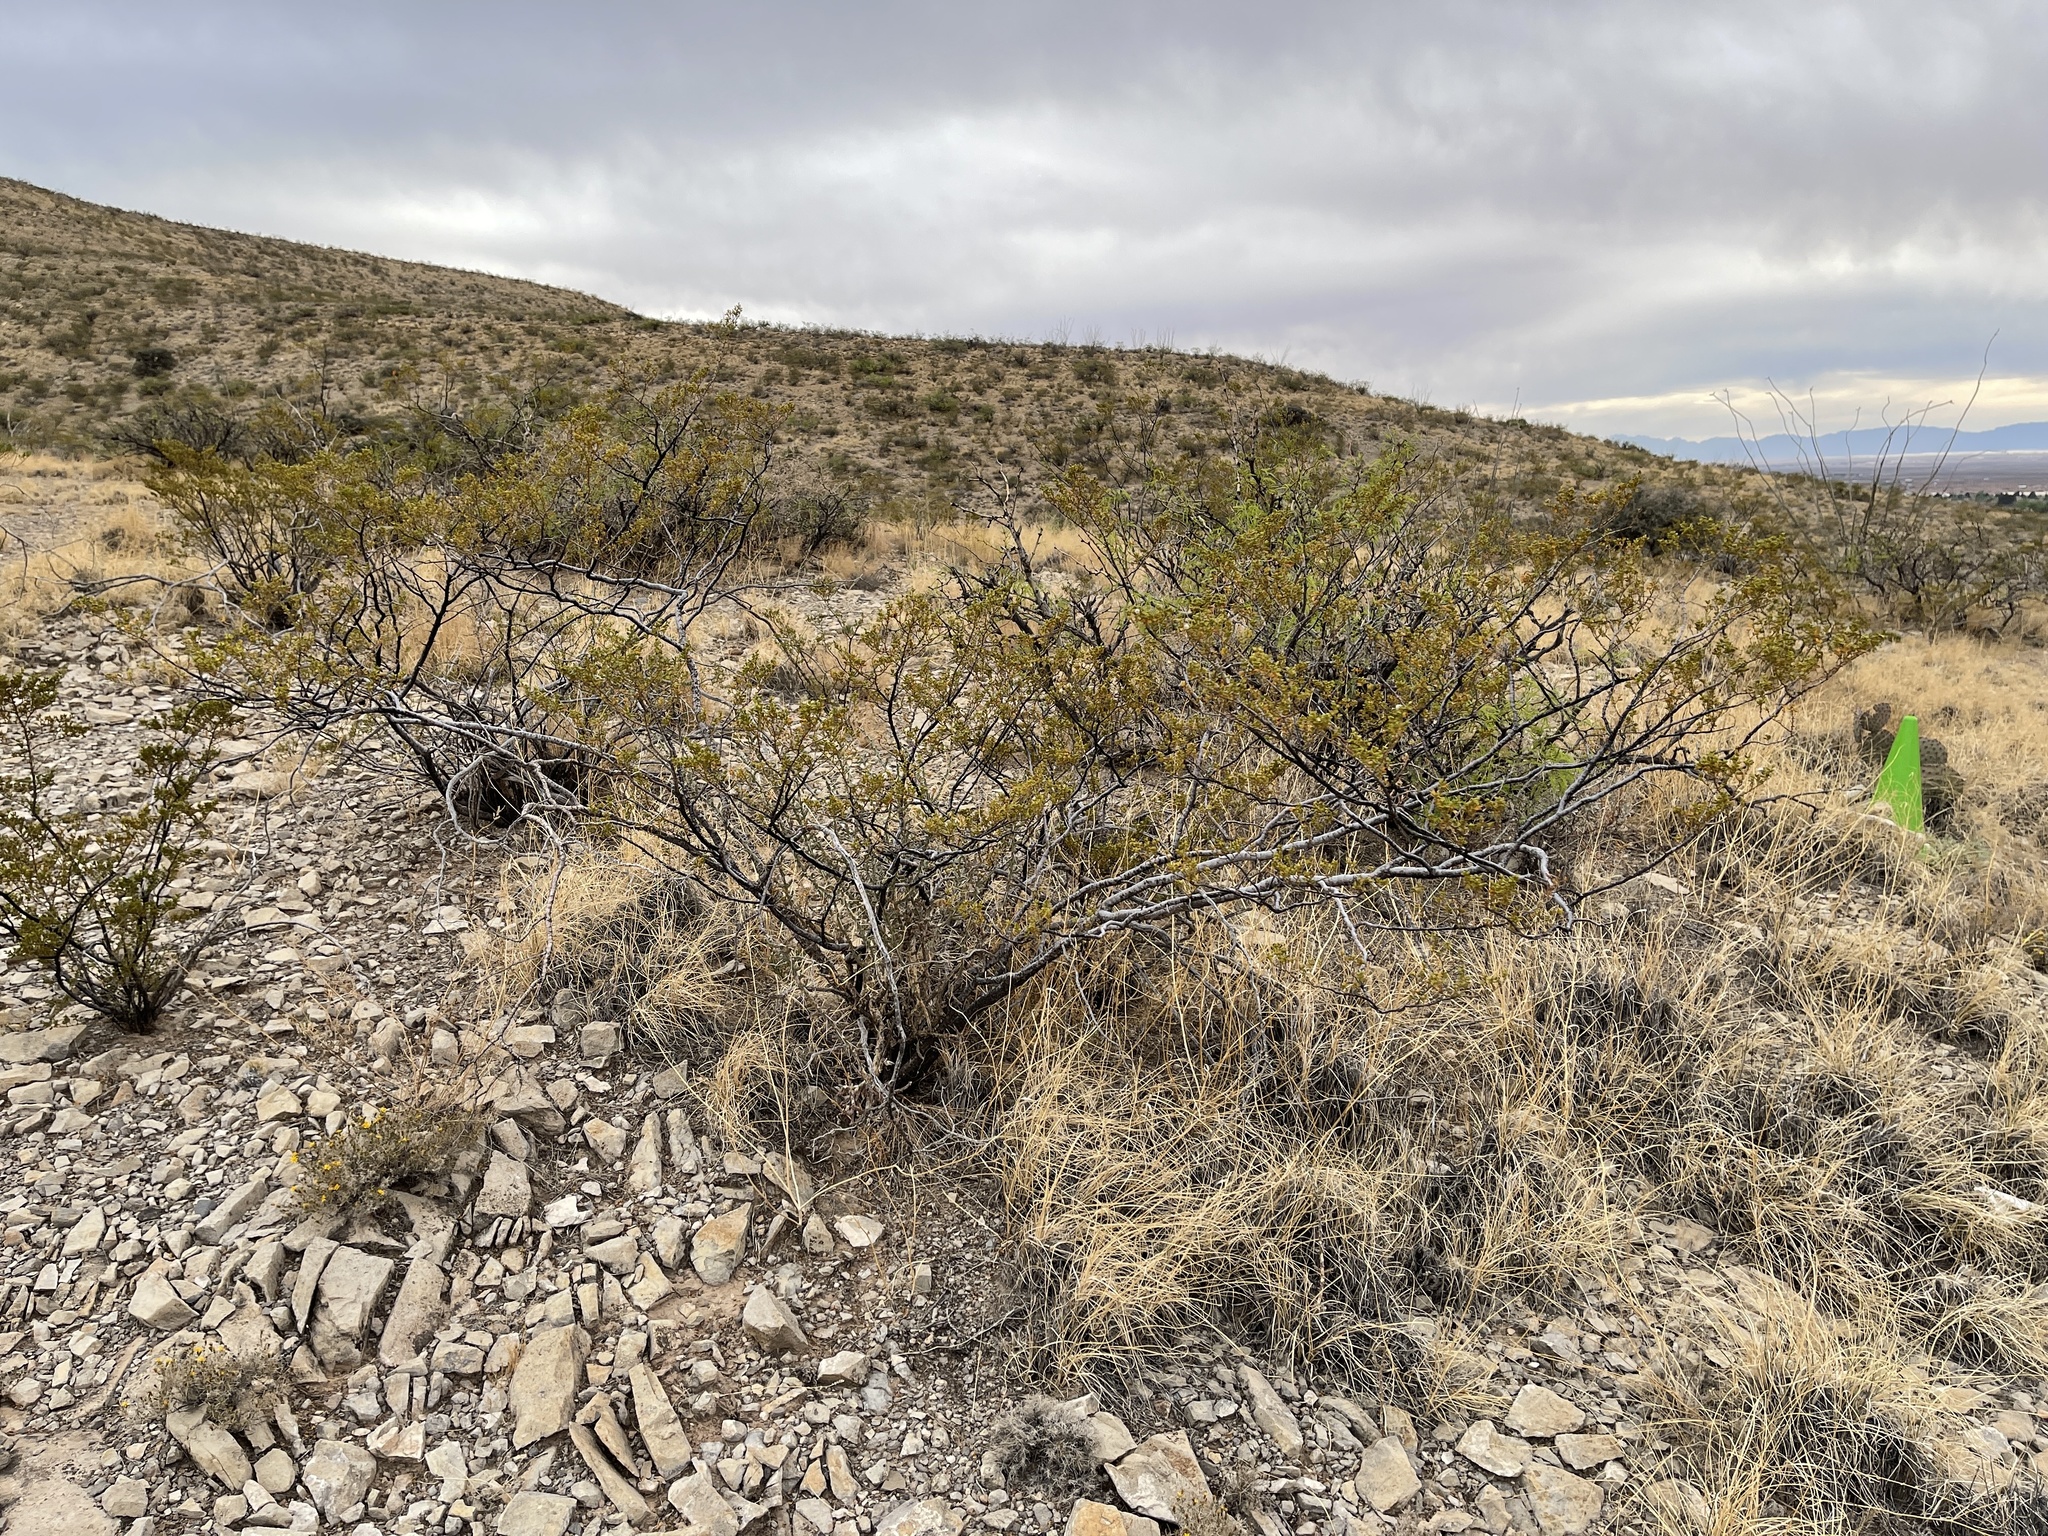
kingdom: Plantae
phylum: Tracheophyta
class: Magnoliopsida
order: Zygophyllales
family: Zygophyllaceae
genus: Larrea
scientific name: Larrea tridentata
